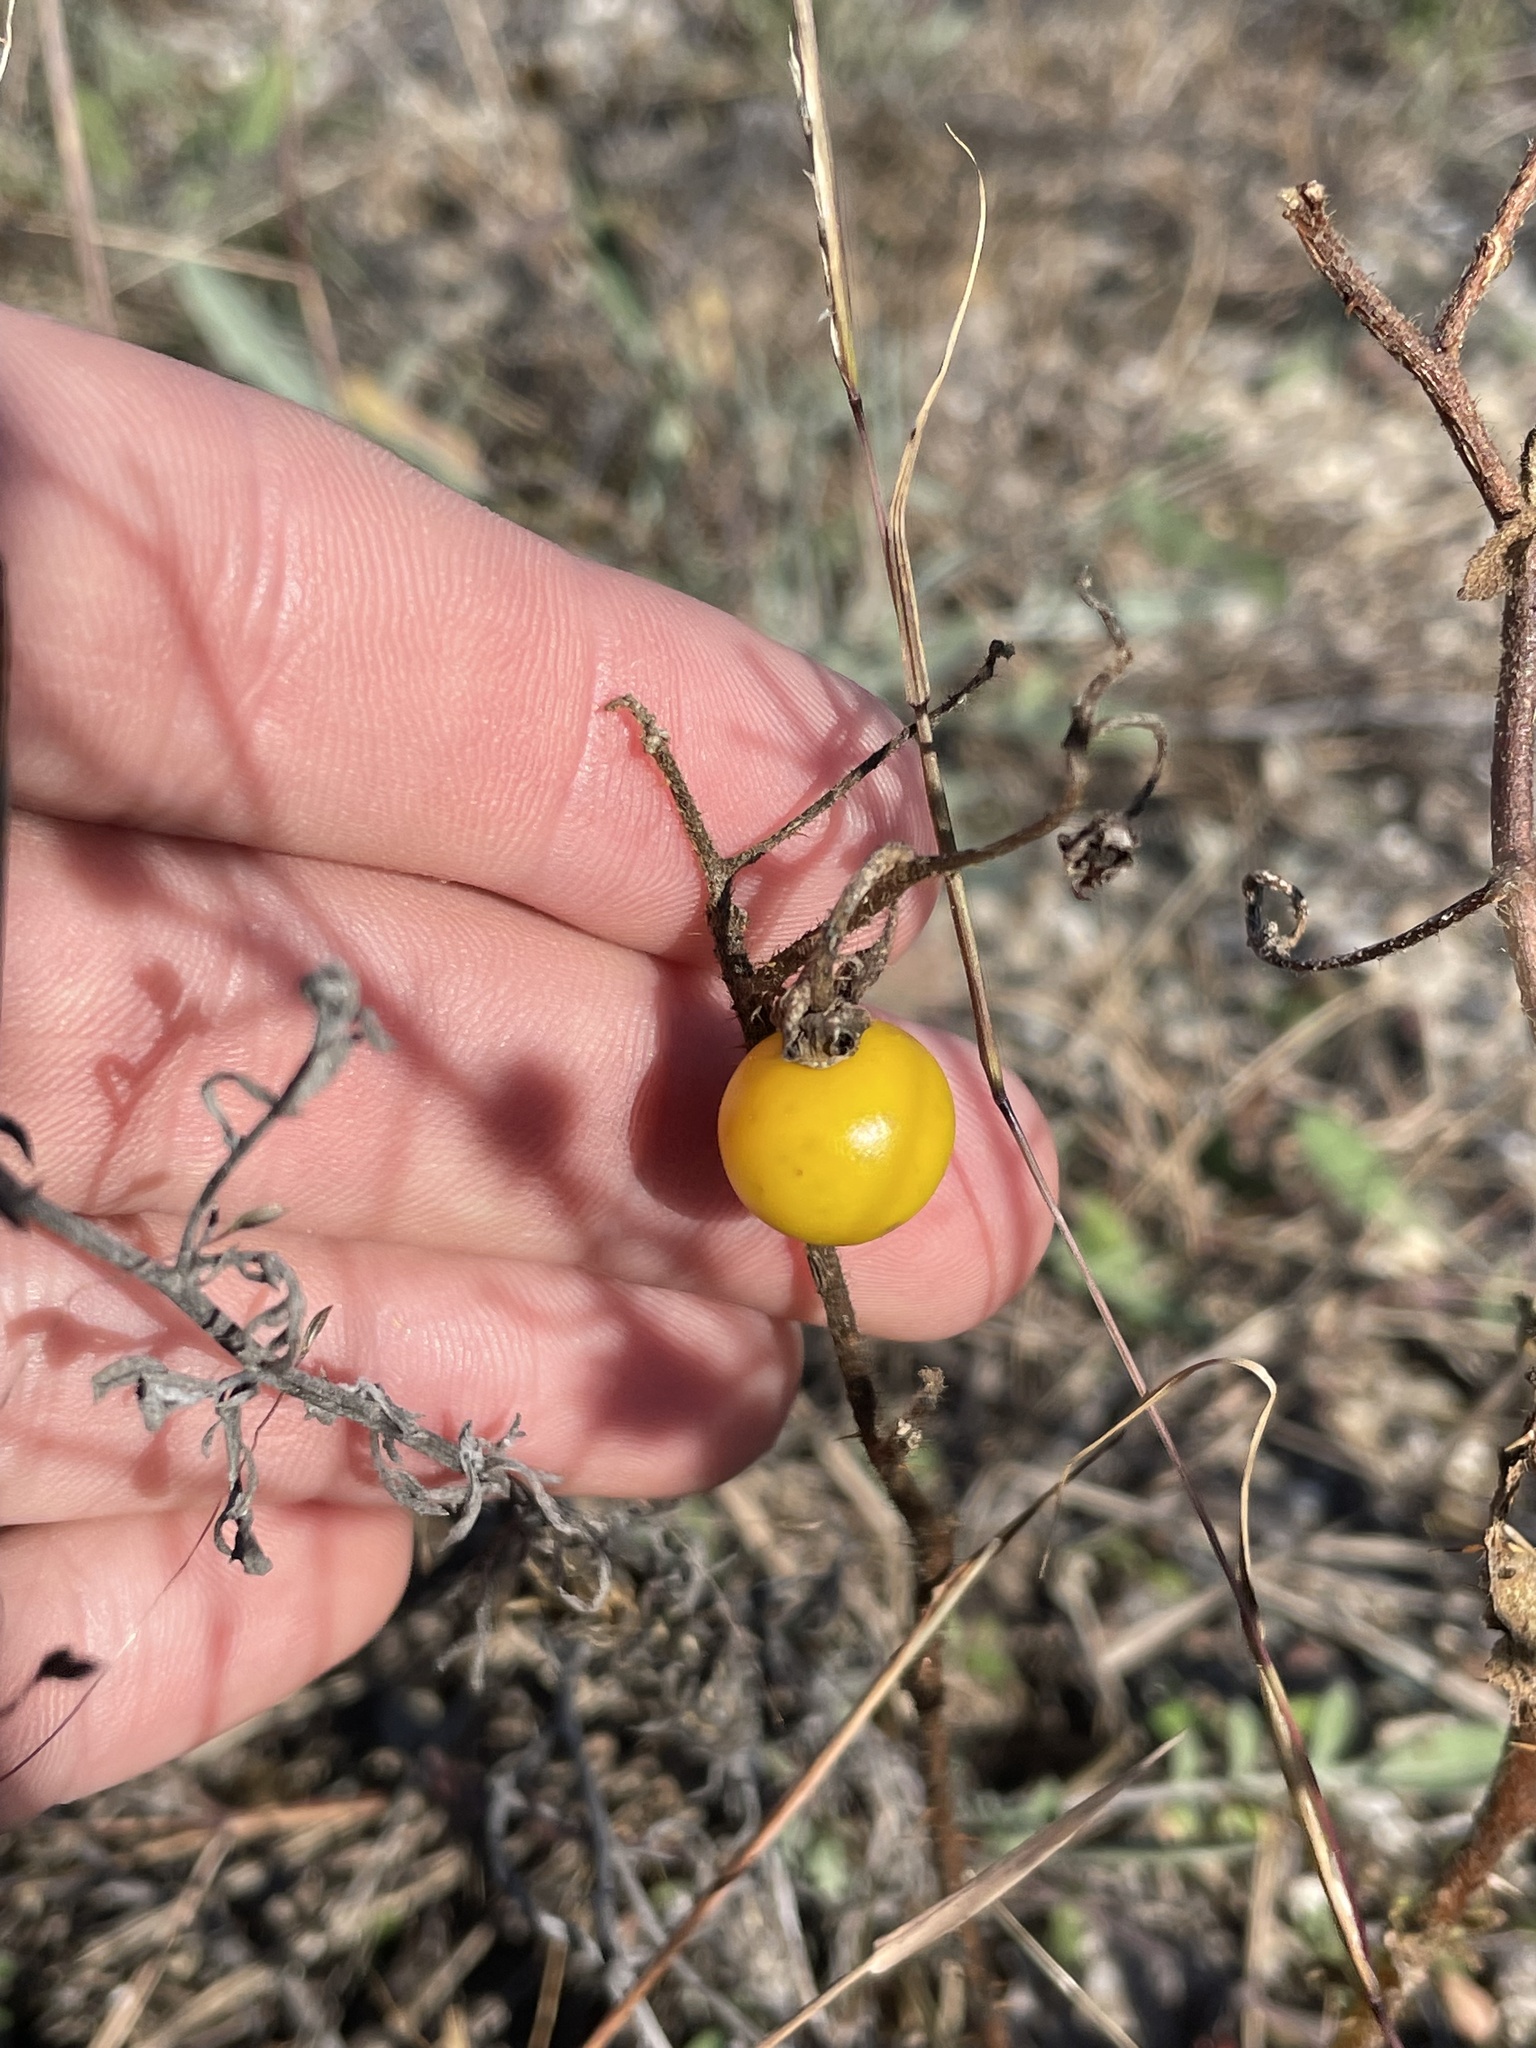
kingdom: Plantae
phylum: Tracheophyta
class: Magnoliopsida
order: Solanales
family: Solanaceae
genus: Solanum
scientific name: Solanum carolinense
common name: Horse-nettle
